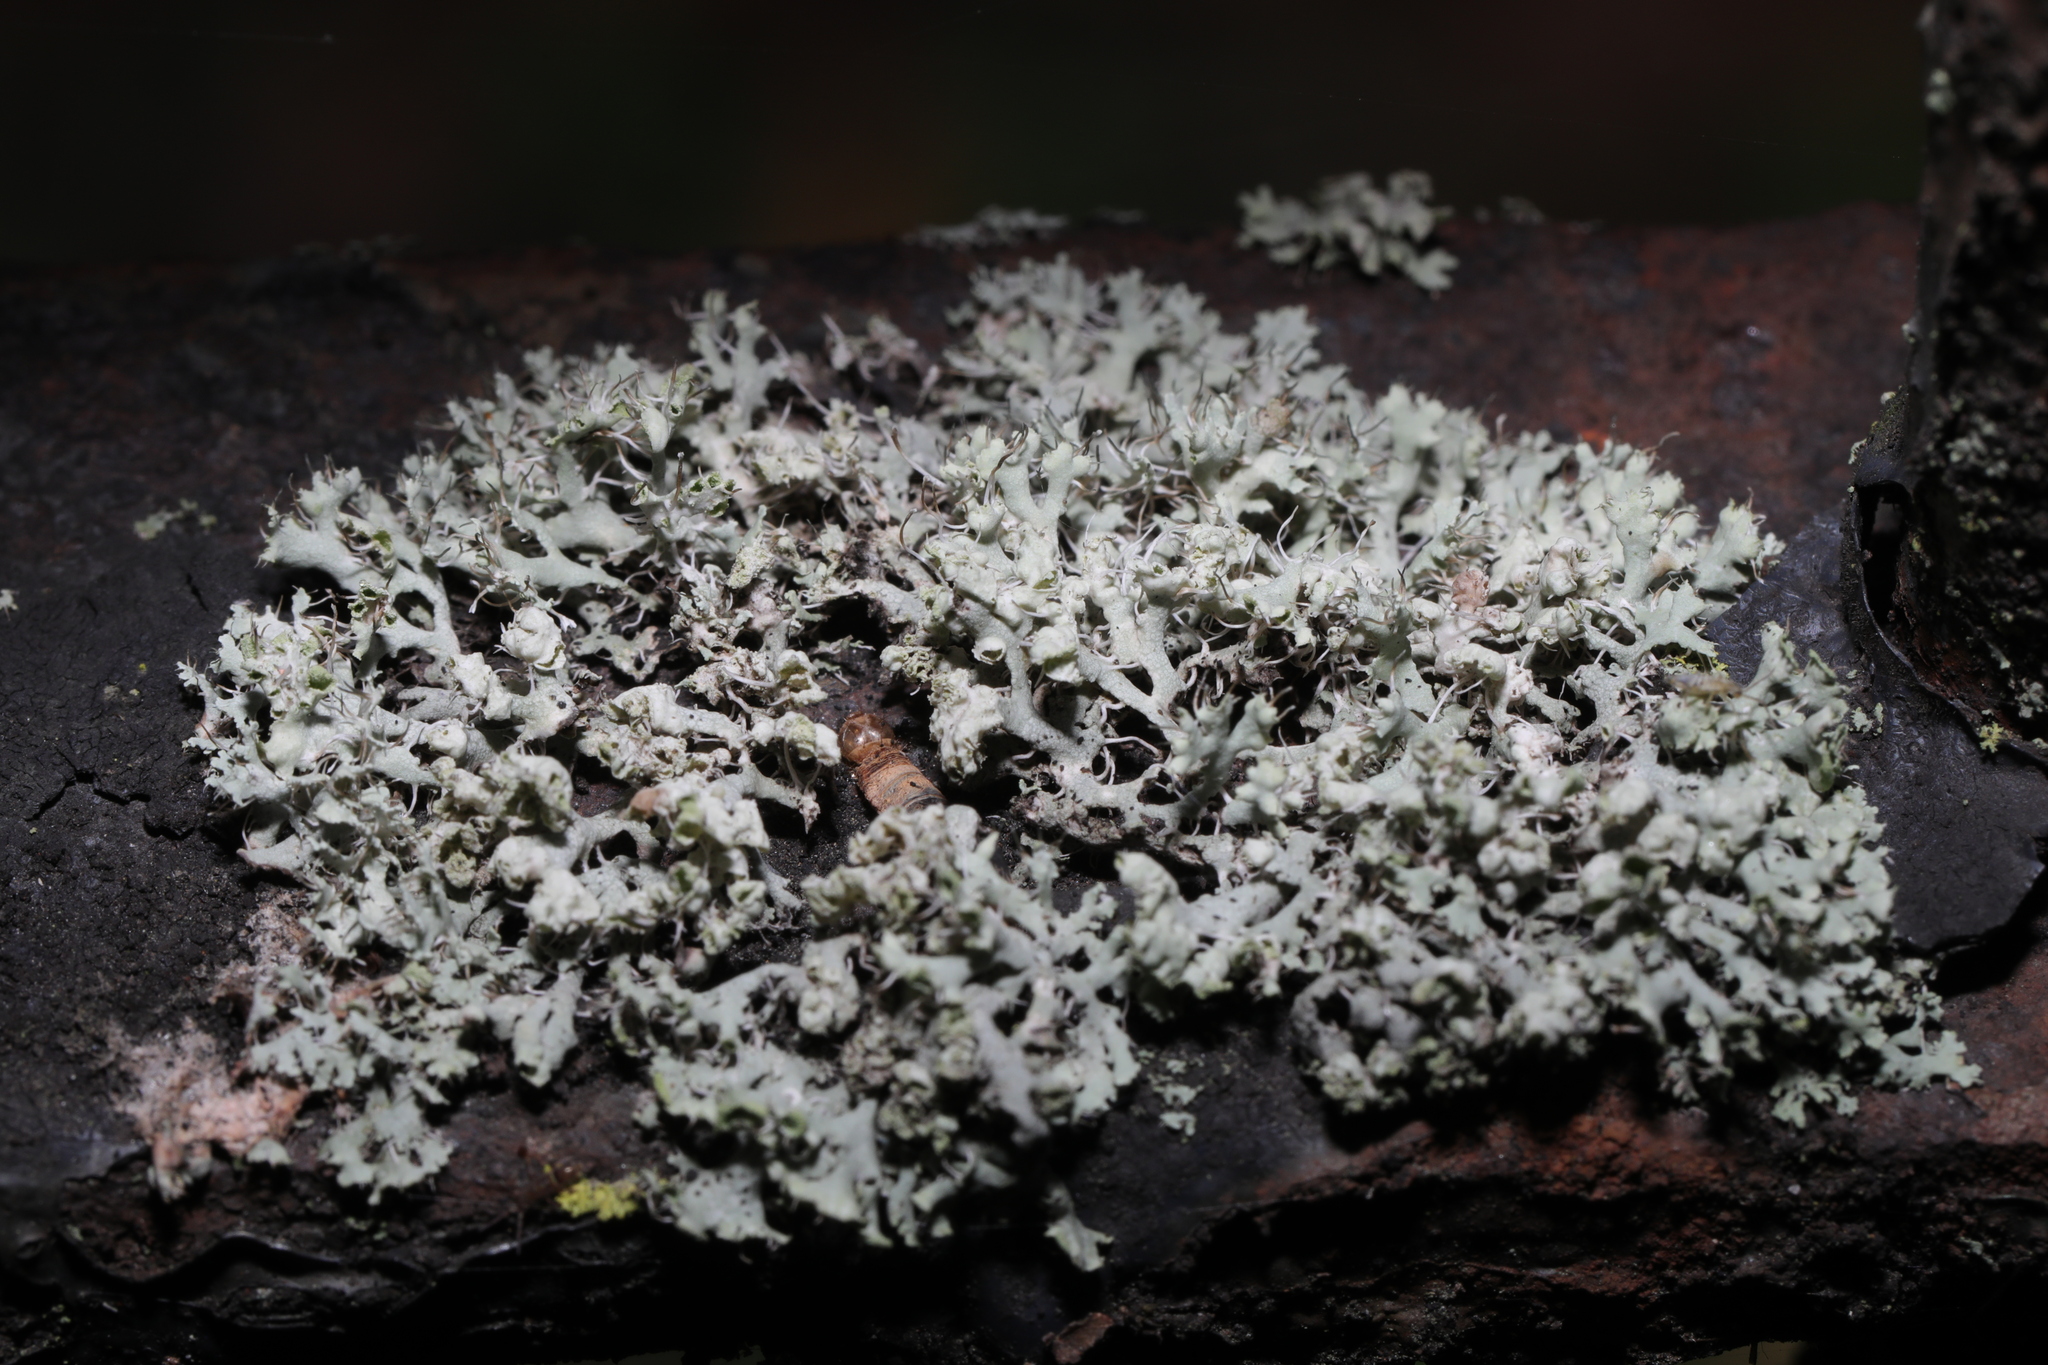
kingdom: Fungi
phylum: Ascomycota
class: Lecanoromycetes
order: Caliciales
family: Physciaceae
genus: Physcia
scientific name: Physcia adscendens
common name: Hooded rosette lichen
